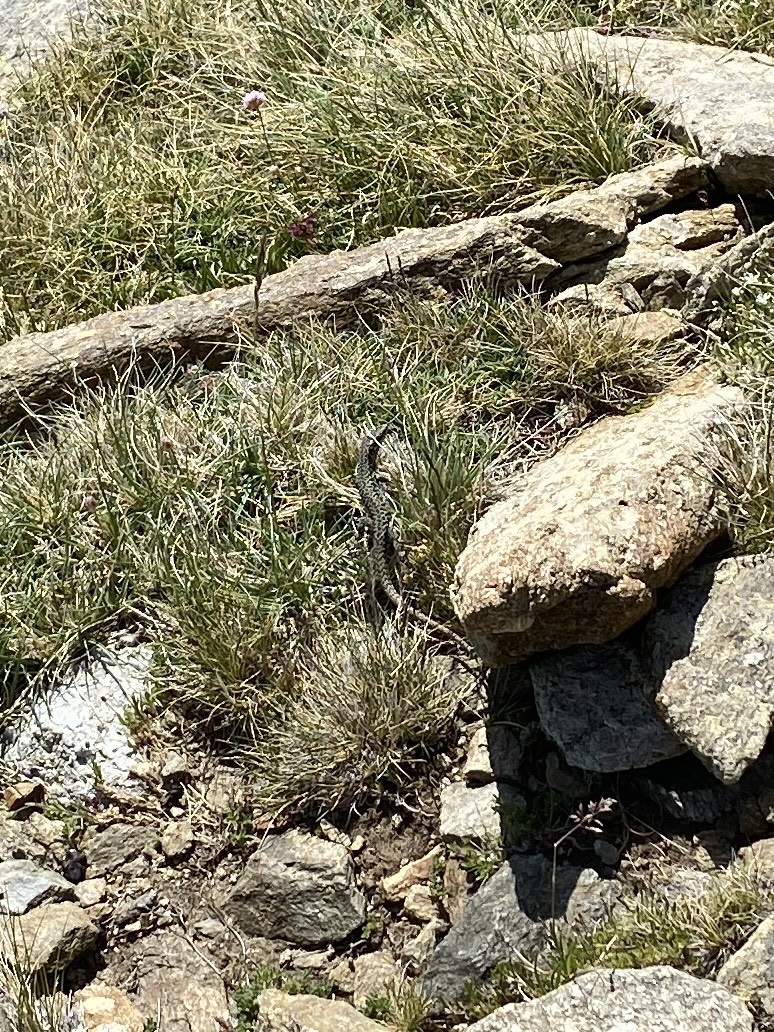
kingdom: Animalia
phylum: Chordata
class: Squamata
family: Lacertidae
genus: Podarcis
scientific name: Podarcis muralis
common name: Common wall lizard
